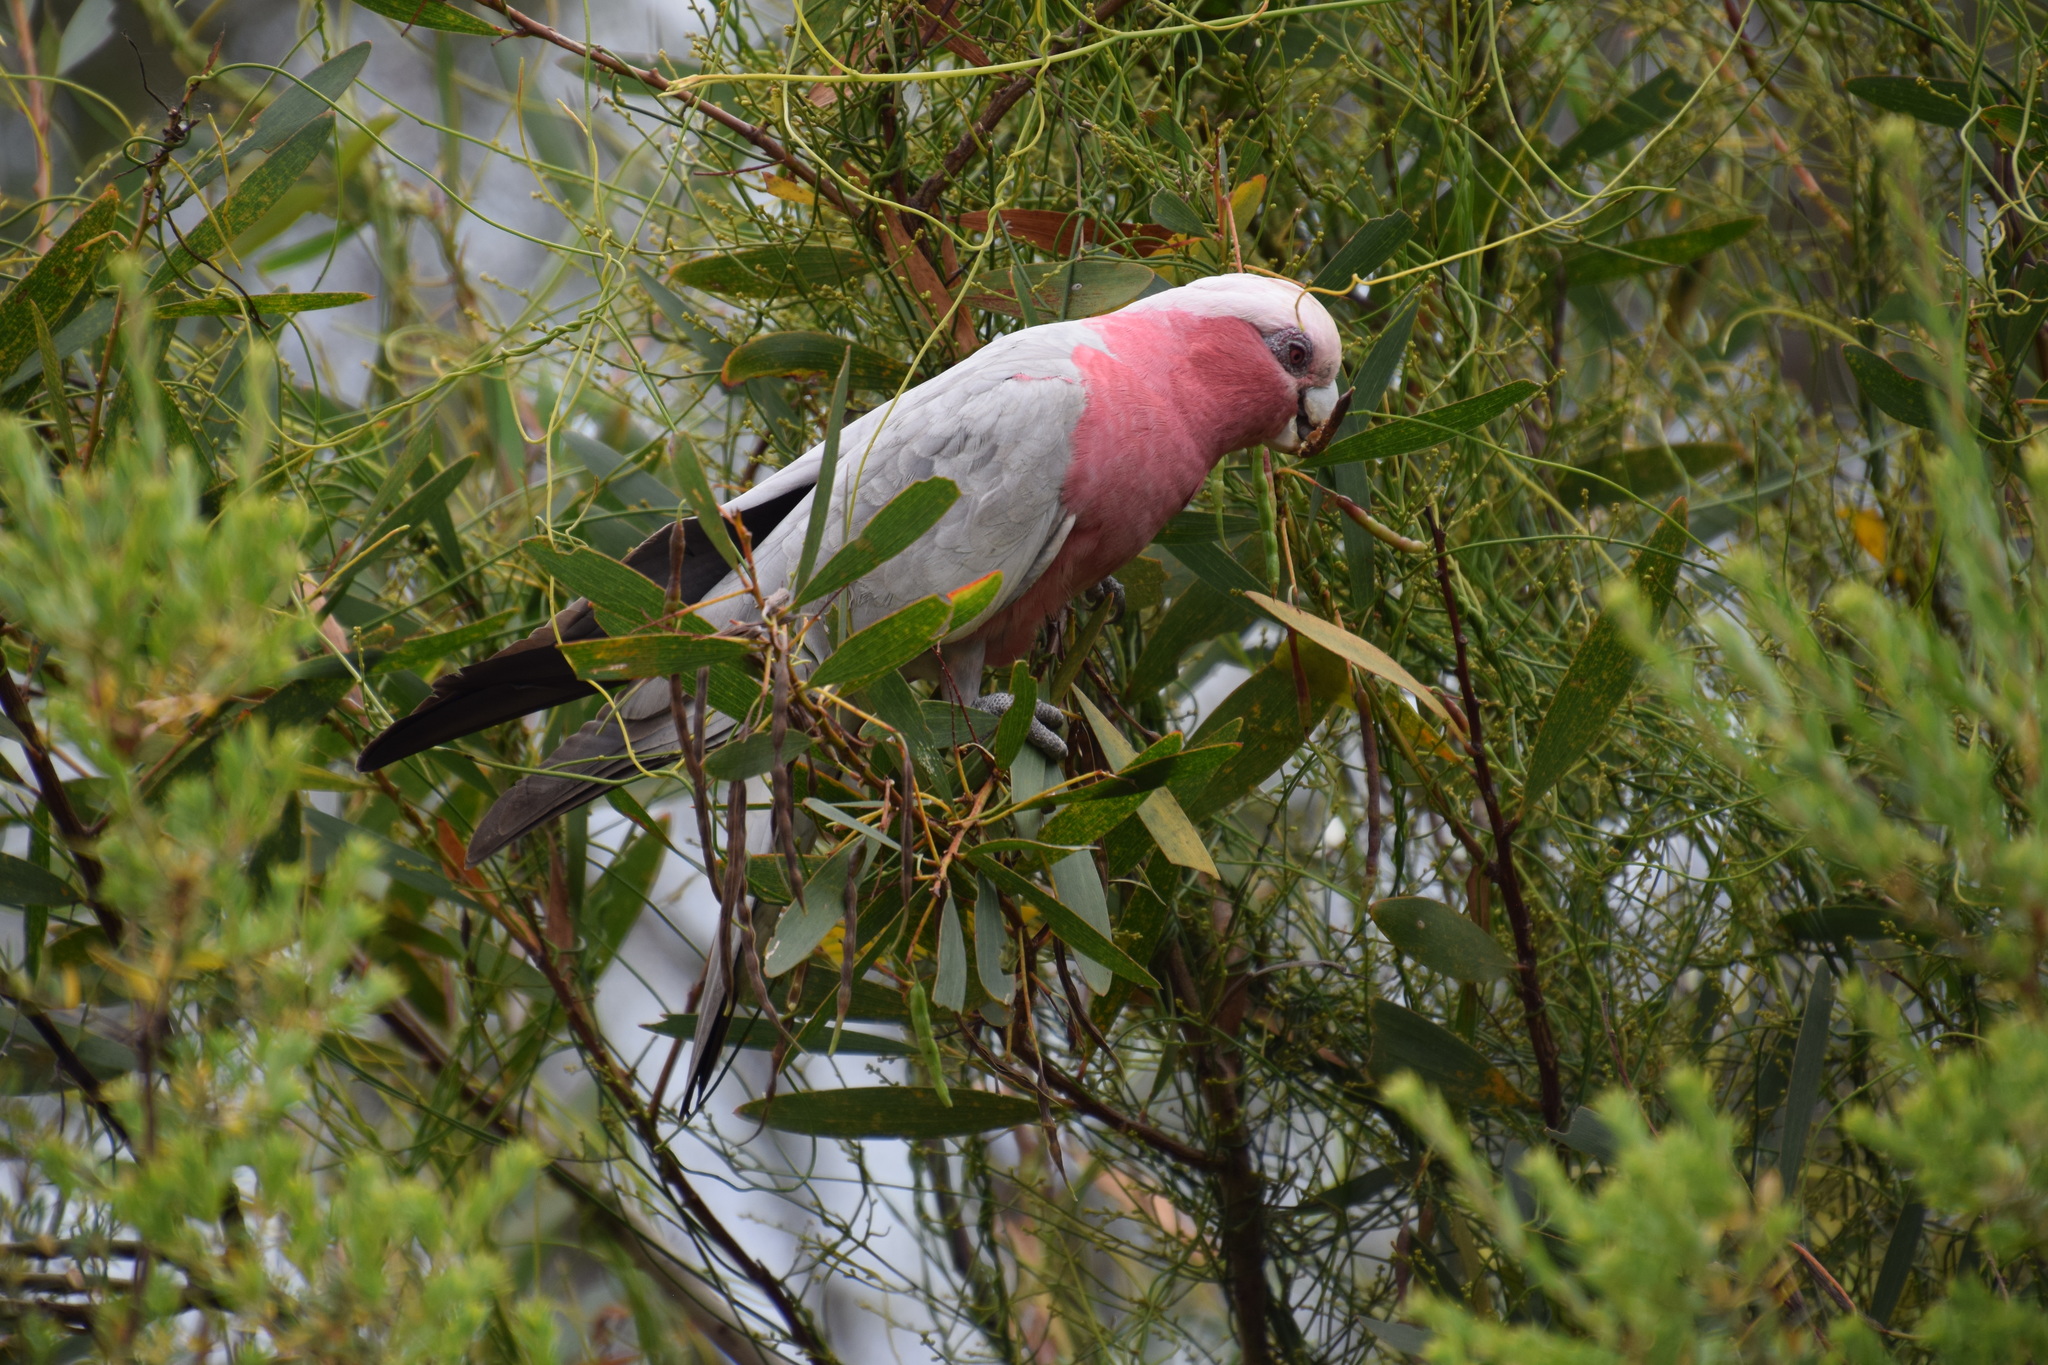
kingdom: Animalia
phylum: Chordata
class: Aves
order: Psittaciformes
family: Psittacidae
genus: Eolophus
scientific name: Eolophus roseicapilla
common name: Galah
